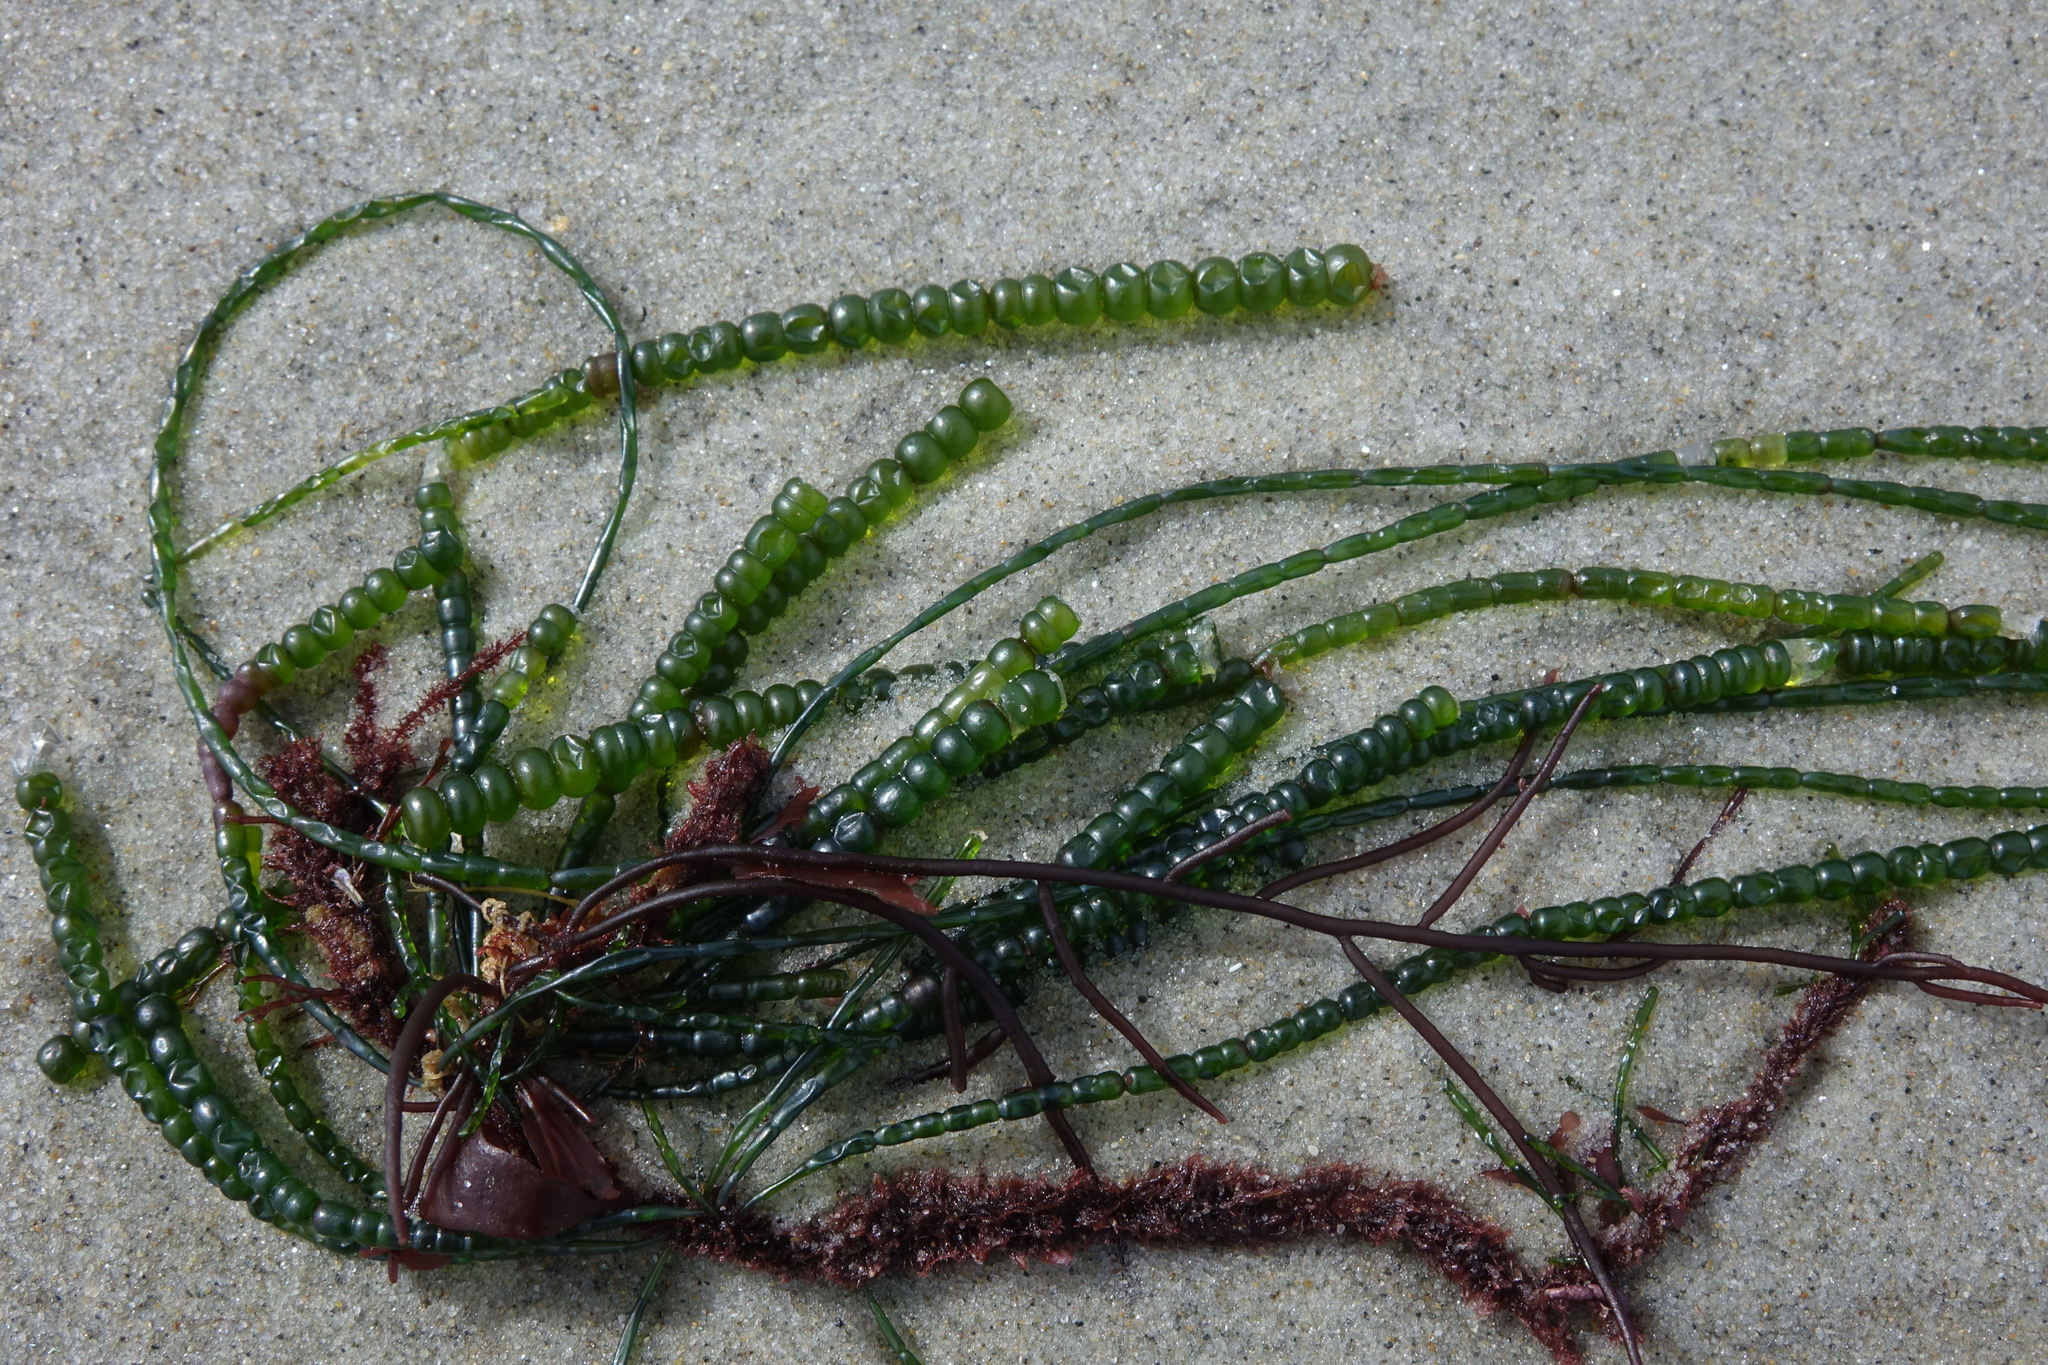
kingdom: Plantae
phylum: Chlorophyta
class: Ulvophyceae
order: Cladophorales
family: Cladophoraceae
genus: Chaetomorpha
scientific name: Chaetomorpha coliformis
